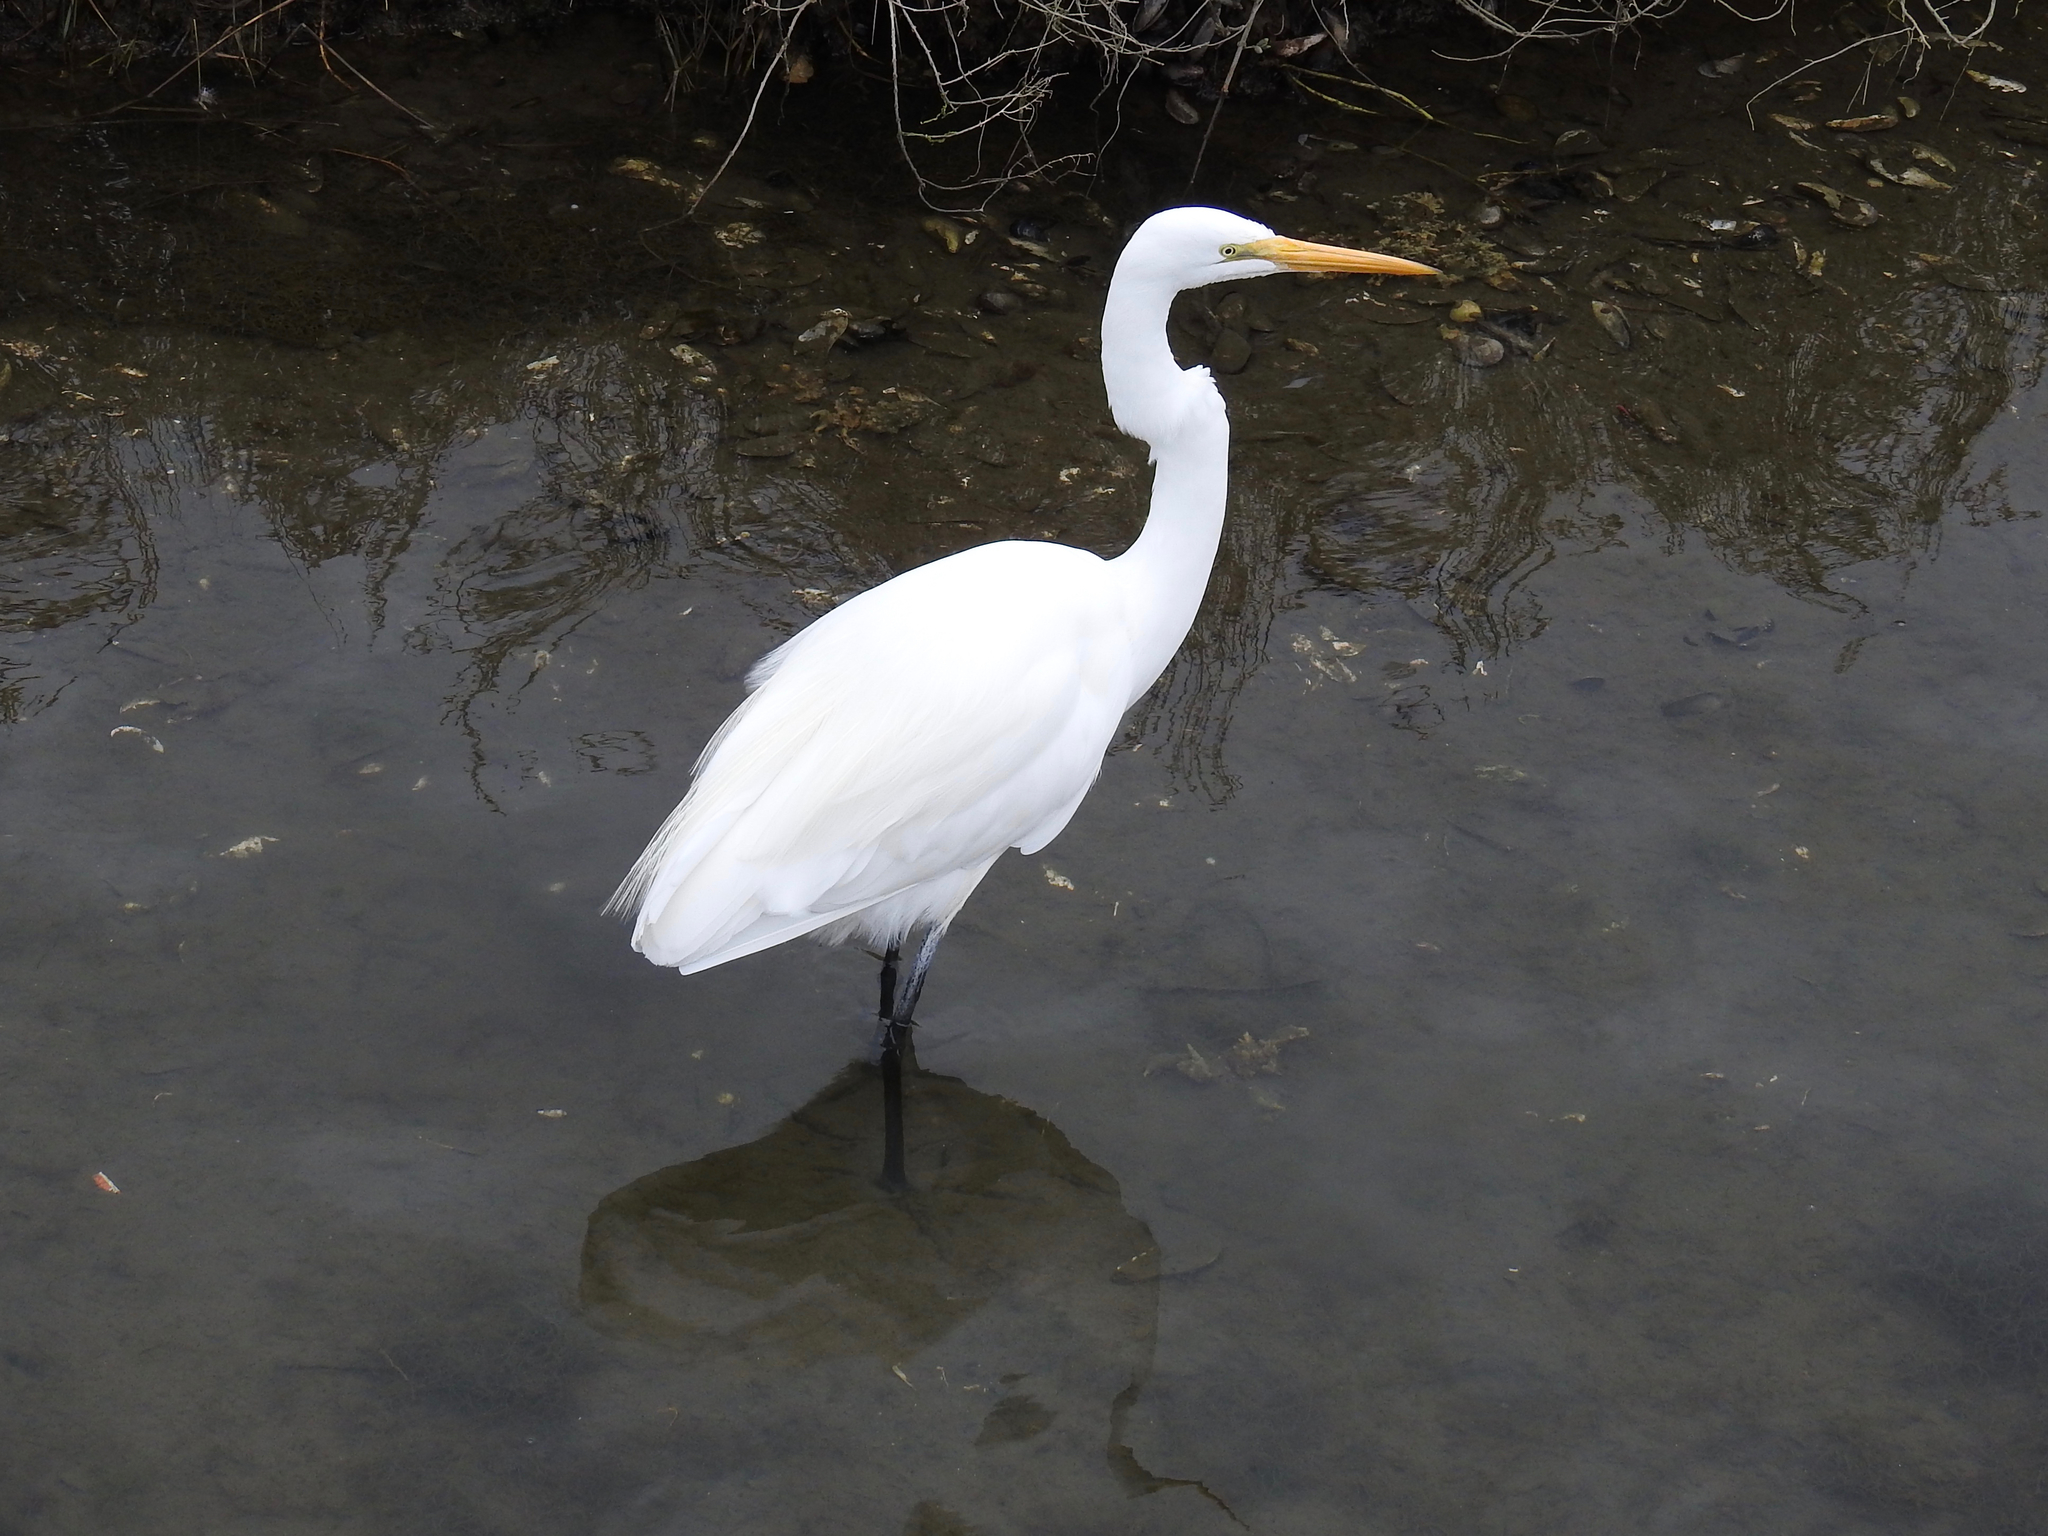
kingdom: Animalia
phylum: Chordata
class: Aves
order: Pelecaniformes
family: Ardeidae
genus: Ardea
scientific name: Ardea alba
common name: Great egret
